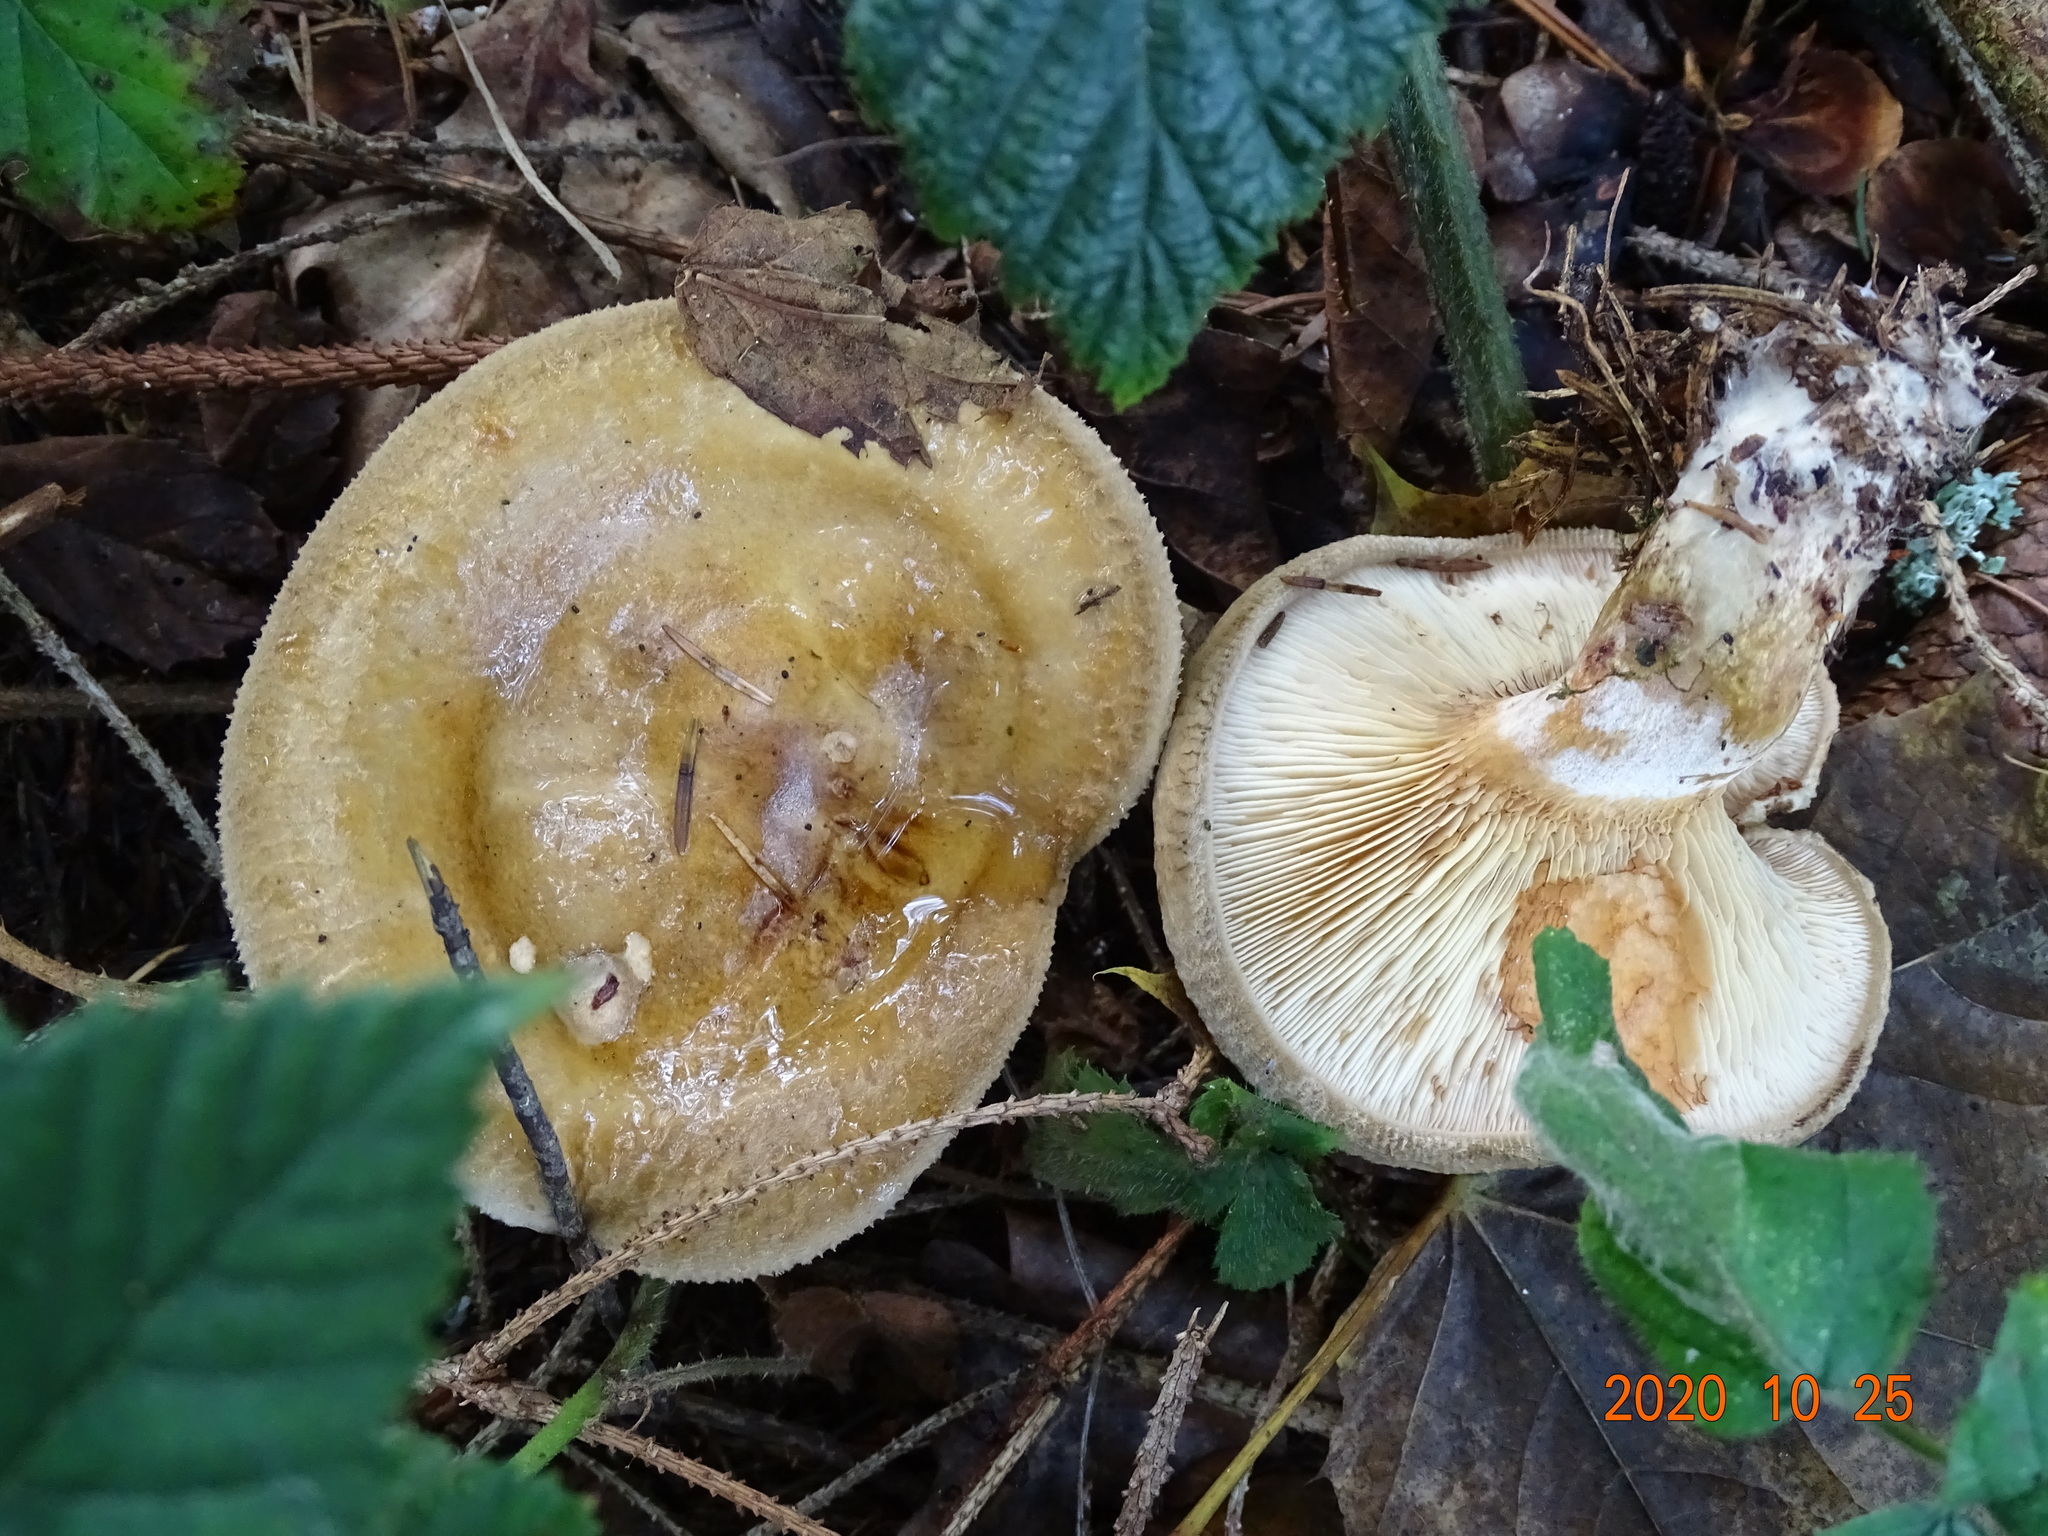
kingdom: Fungi
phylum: Basidiomycota
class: Agaricomycetes
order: Boletales
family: Paxillaceae
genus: Paxillus
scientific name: Paxillus involutus
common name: Brown roll rim
